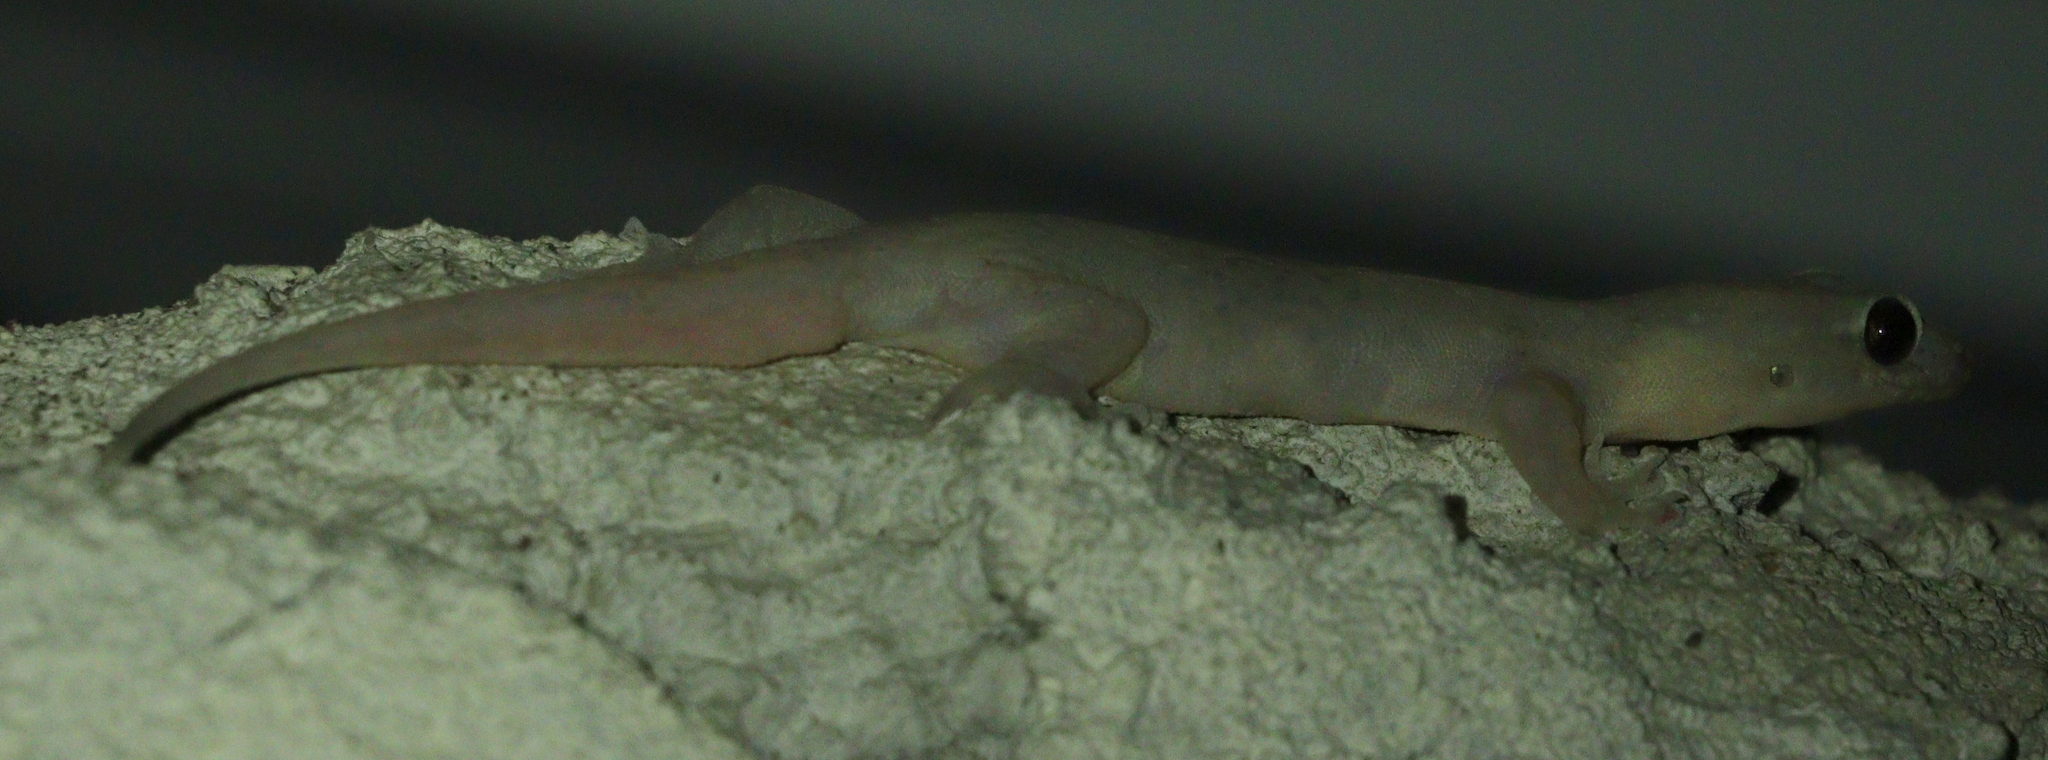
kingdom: Animalia
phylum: Chordata
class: Squamata
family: Gekkonidae
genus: Gehyra
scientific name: Gehyra mutilata
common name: Stump-toed gecko
